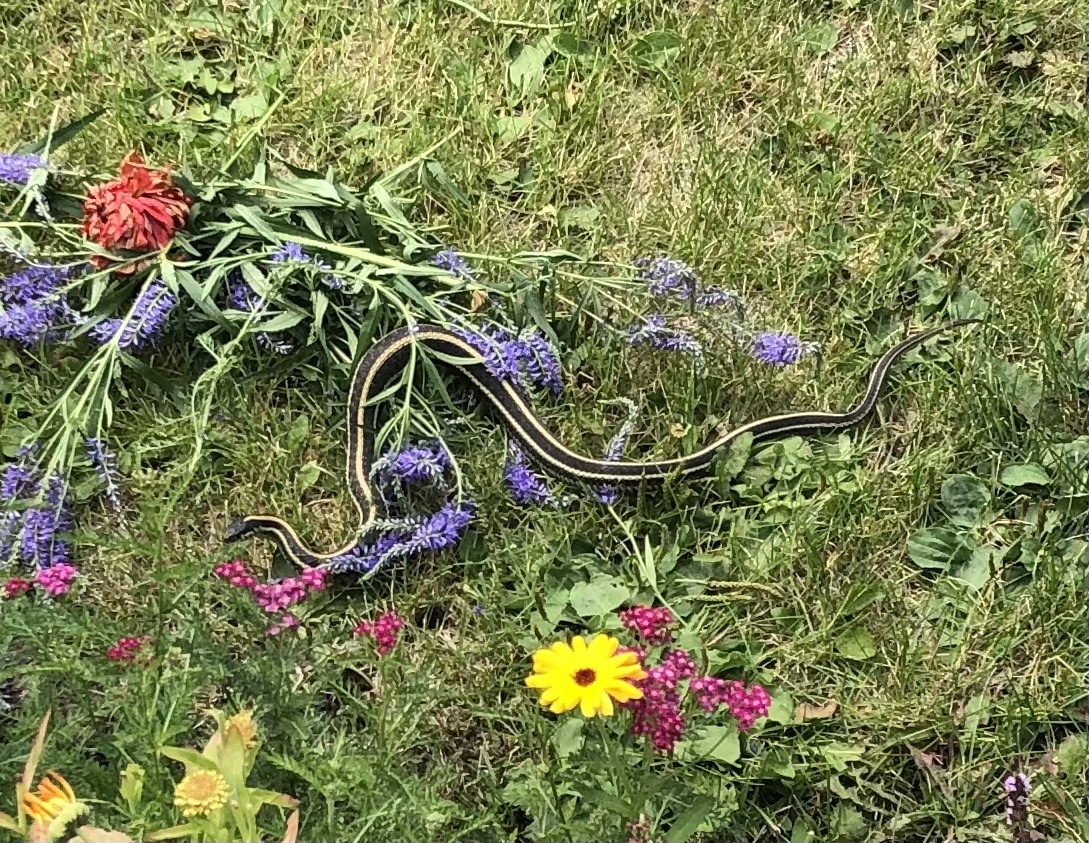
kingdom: Animalia
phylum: Chordata
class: Squamata
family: Colubridae
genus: Thamnophis
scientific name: Thamnophis sirtalis
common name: Common garter snake
